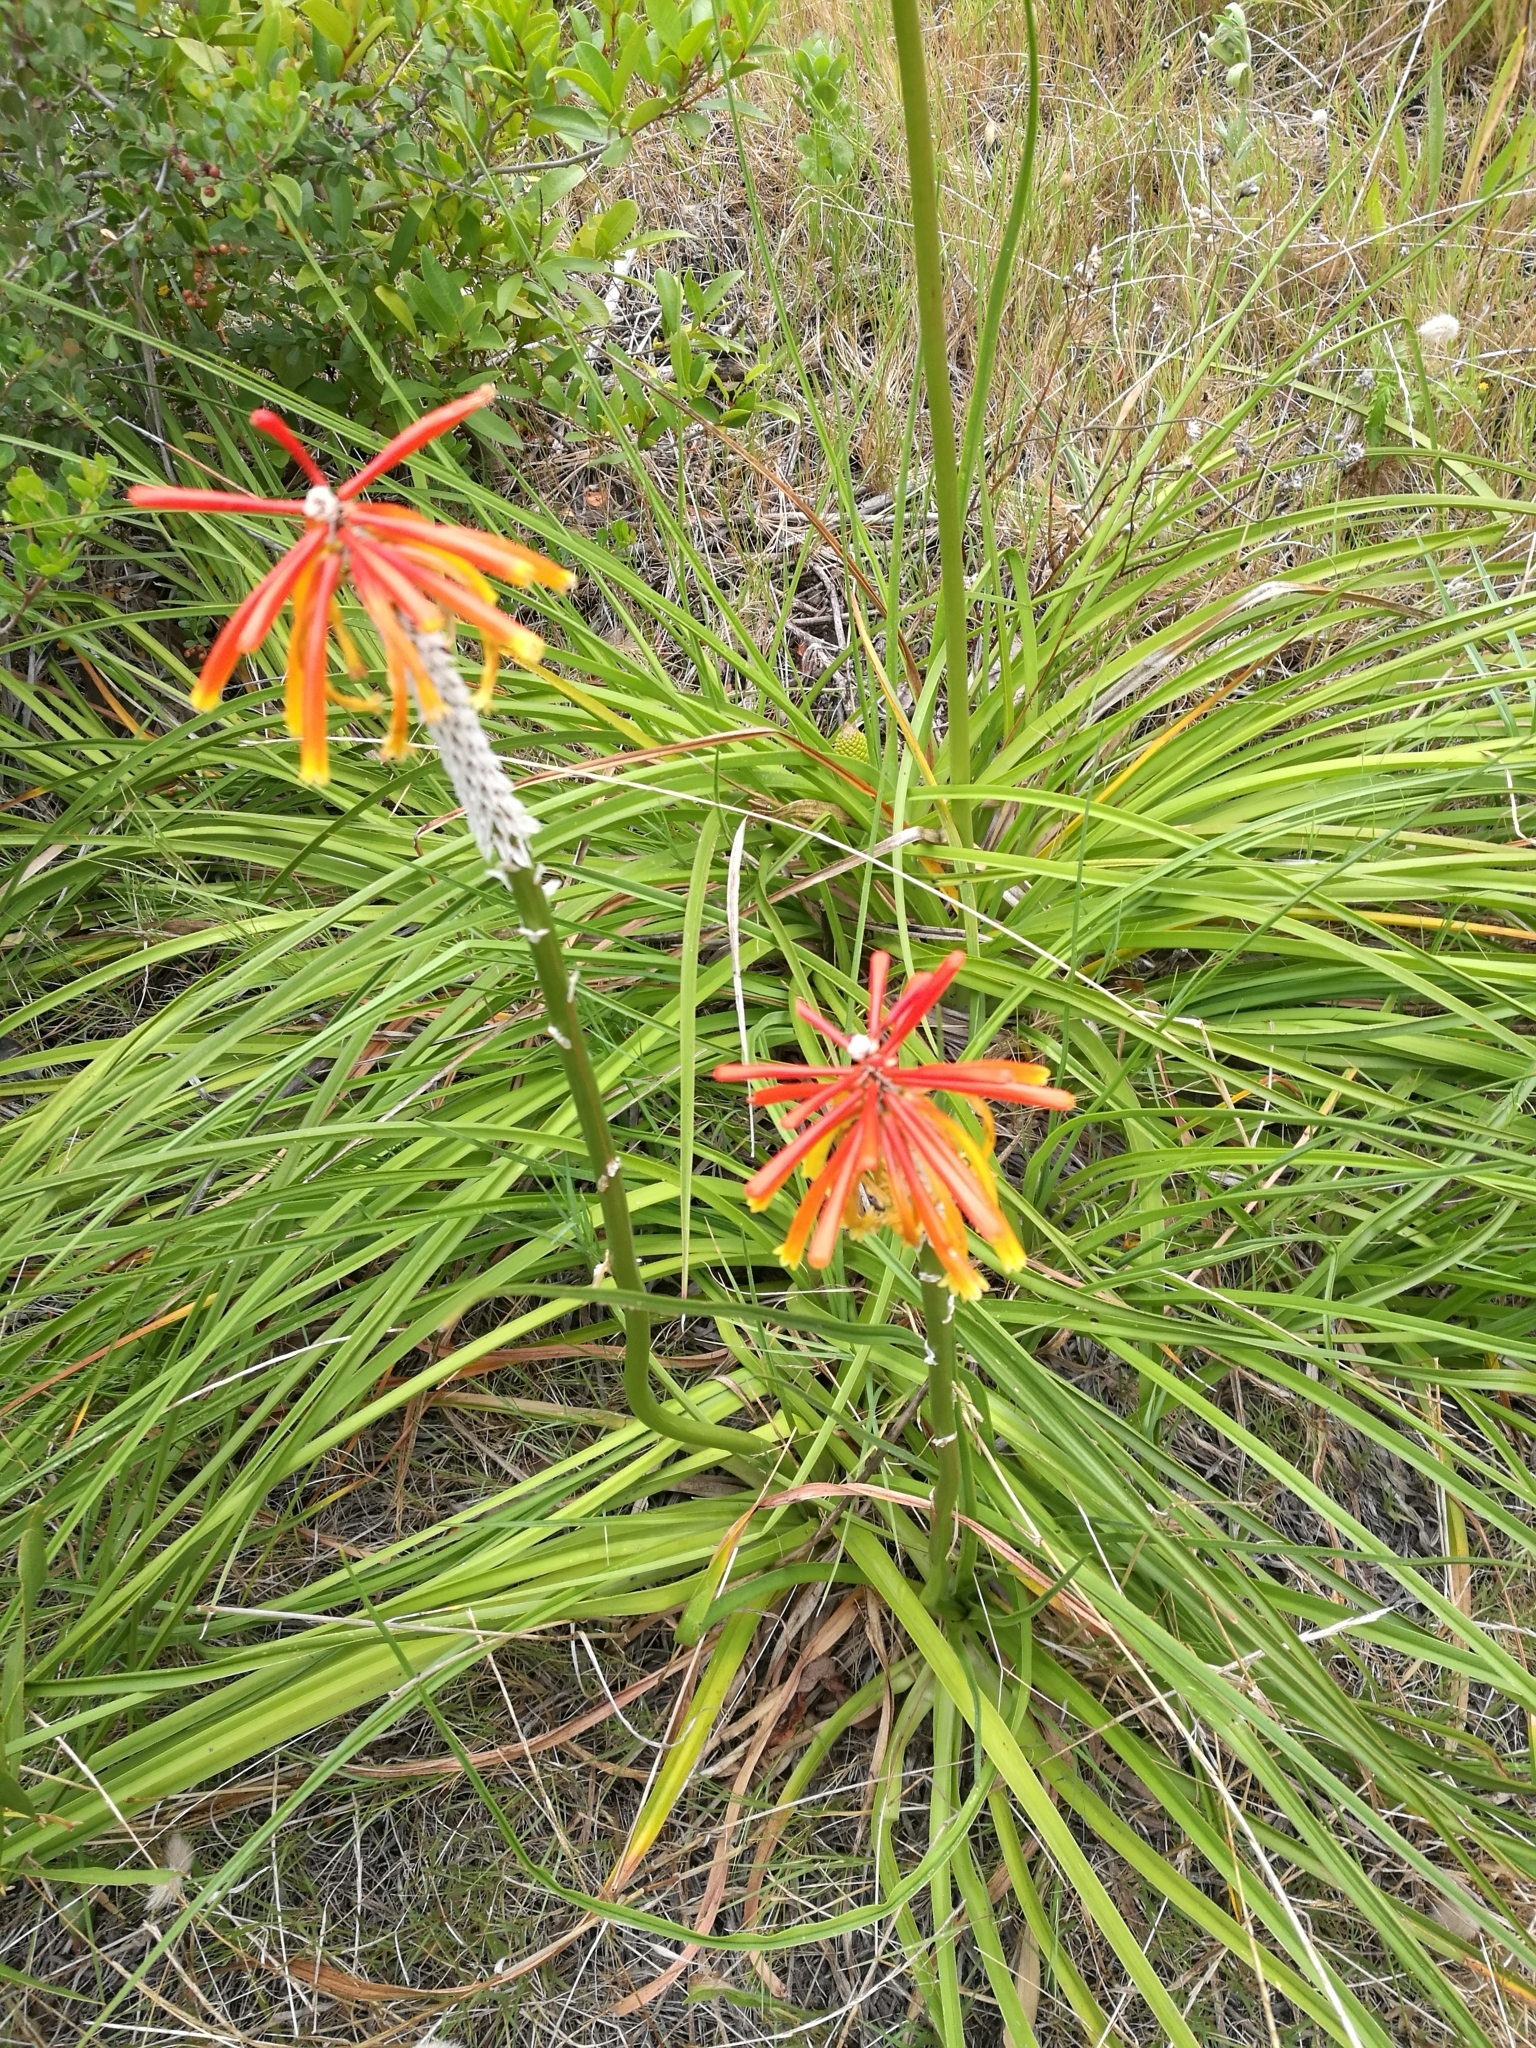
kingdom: Plantae
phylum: Tracheophyta
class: Liliopsida
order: Asparagales
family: Asphodelaceae
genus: Kniphofia
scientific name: Kniphofia uvaria
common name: Red-hot-poker
